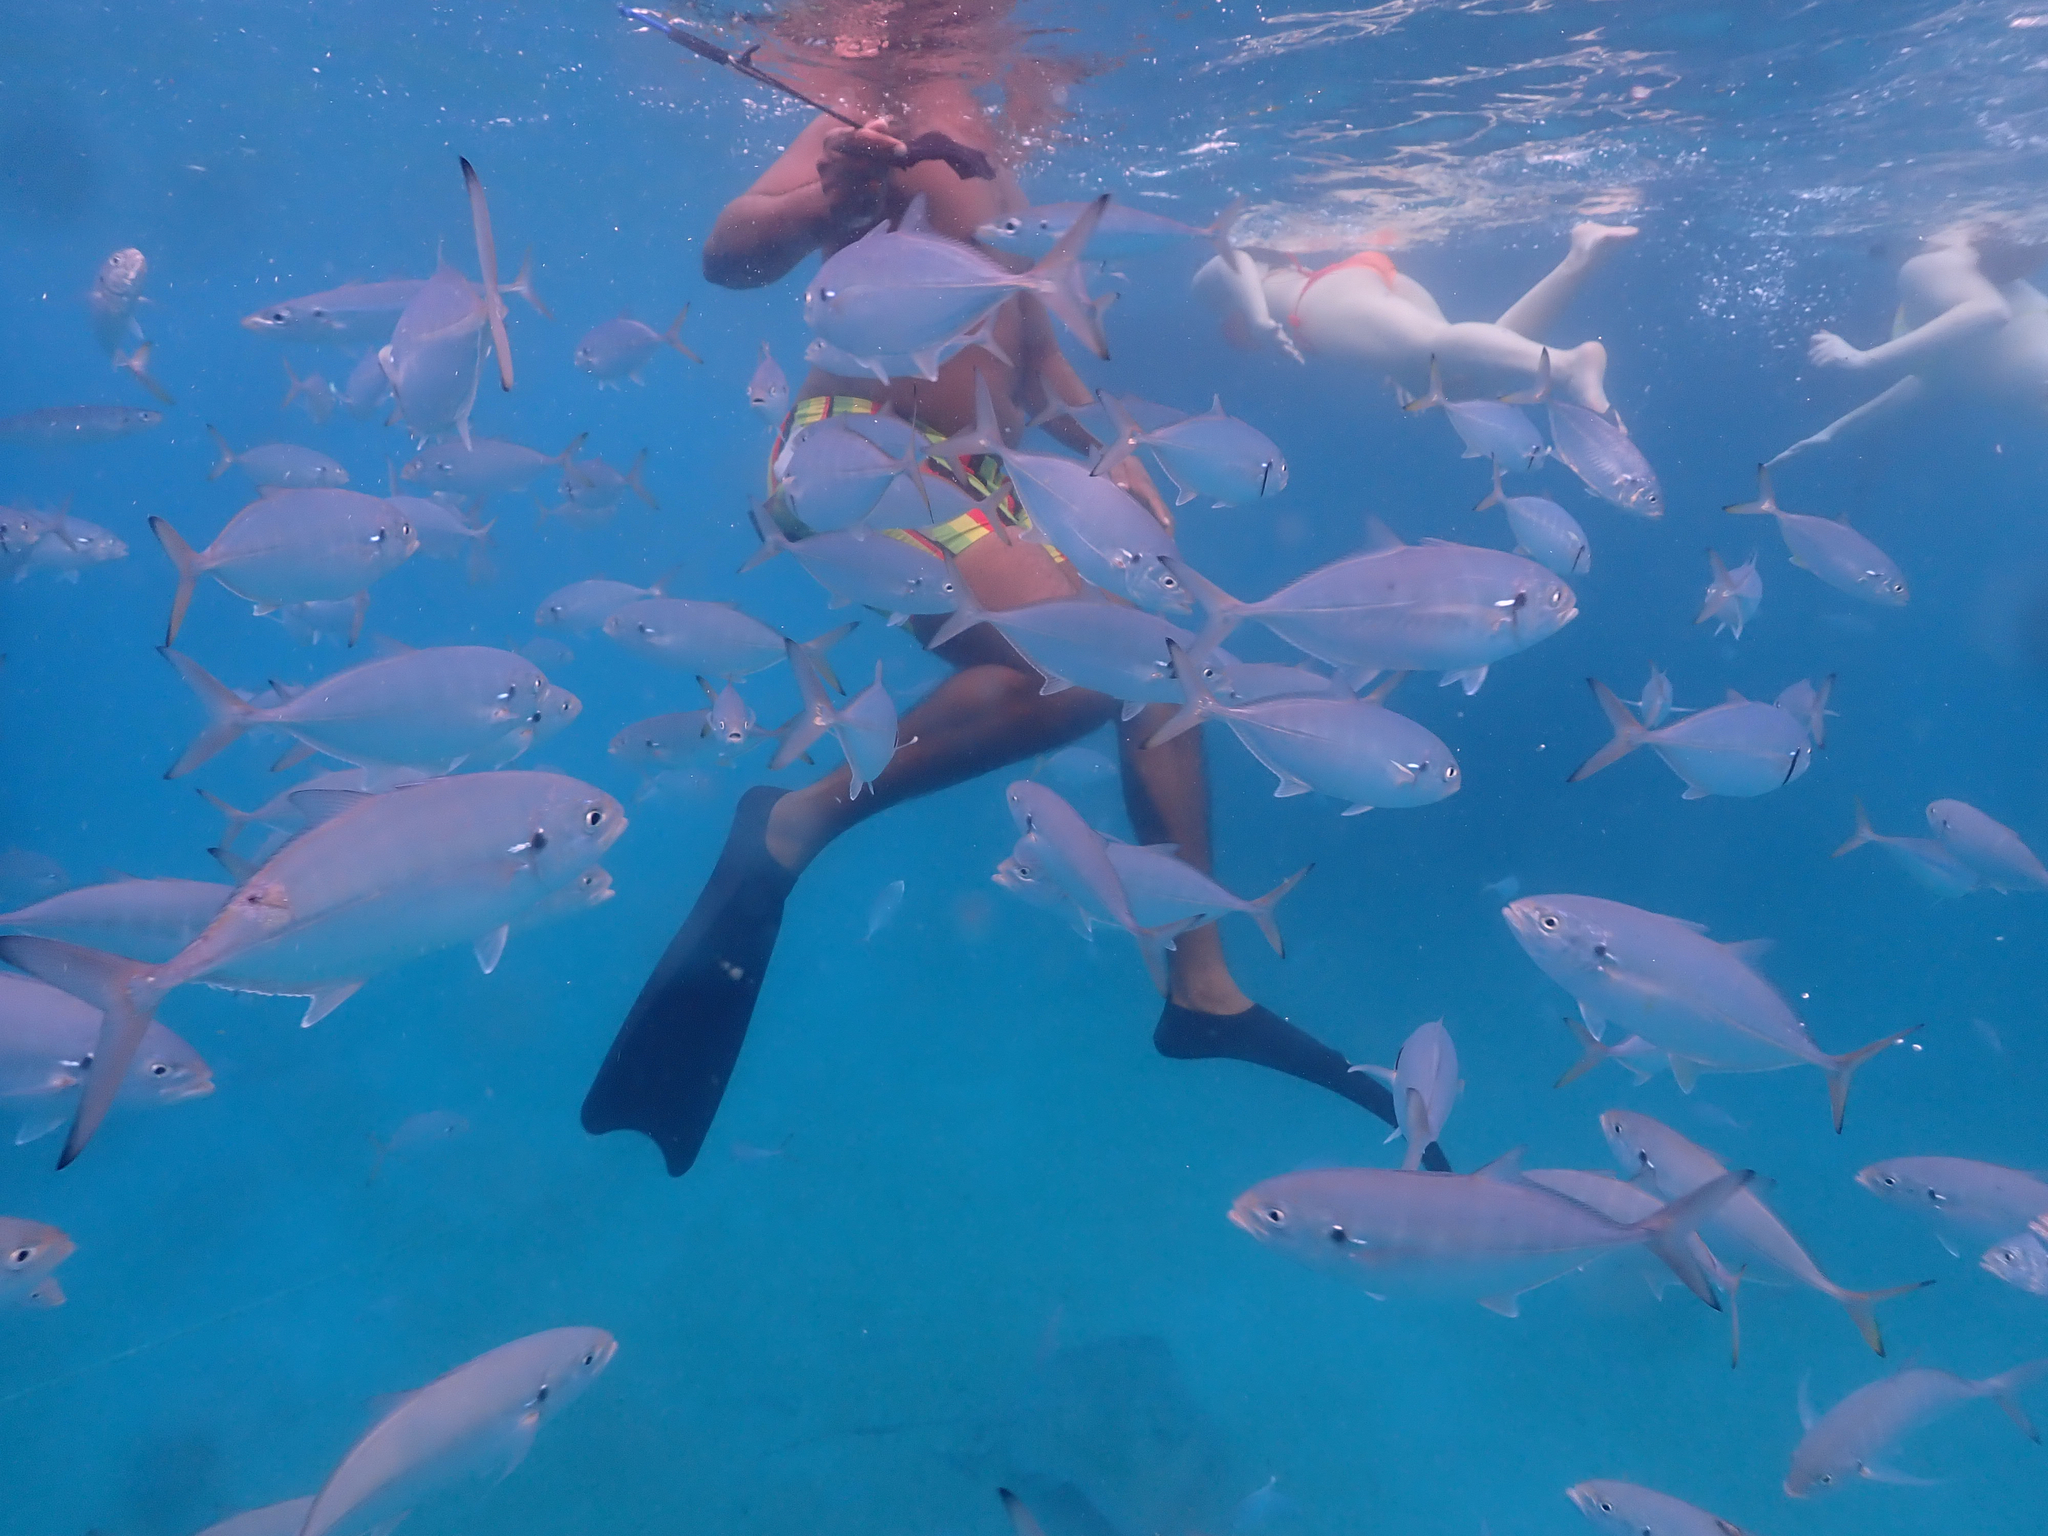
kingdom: Animalia
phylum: Chordata
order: Perciformes
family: Carangidae
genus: Caranx
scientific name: Caranx crysos
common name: Blue runner
